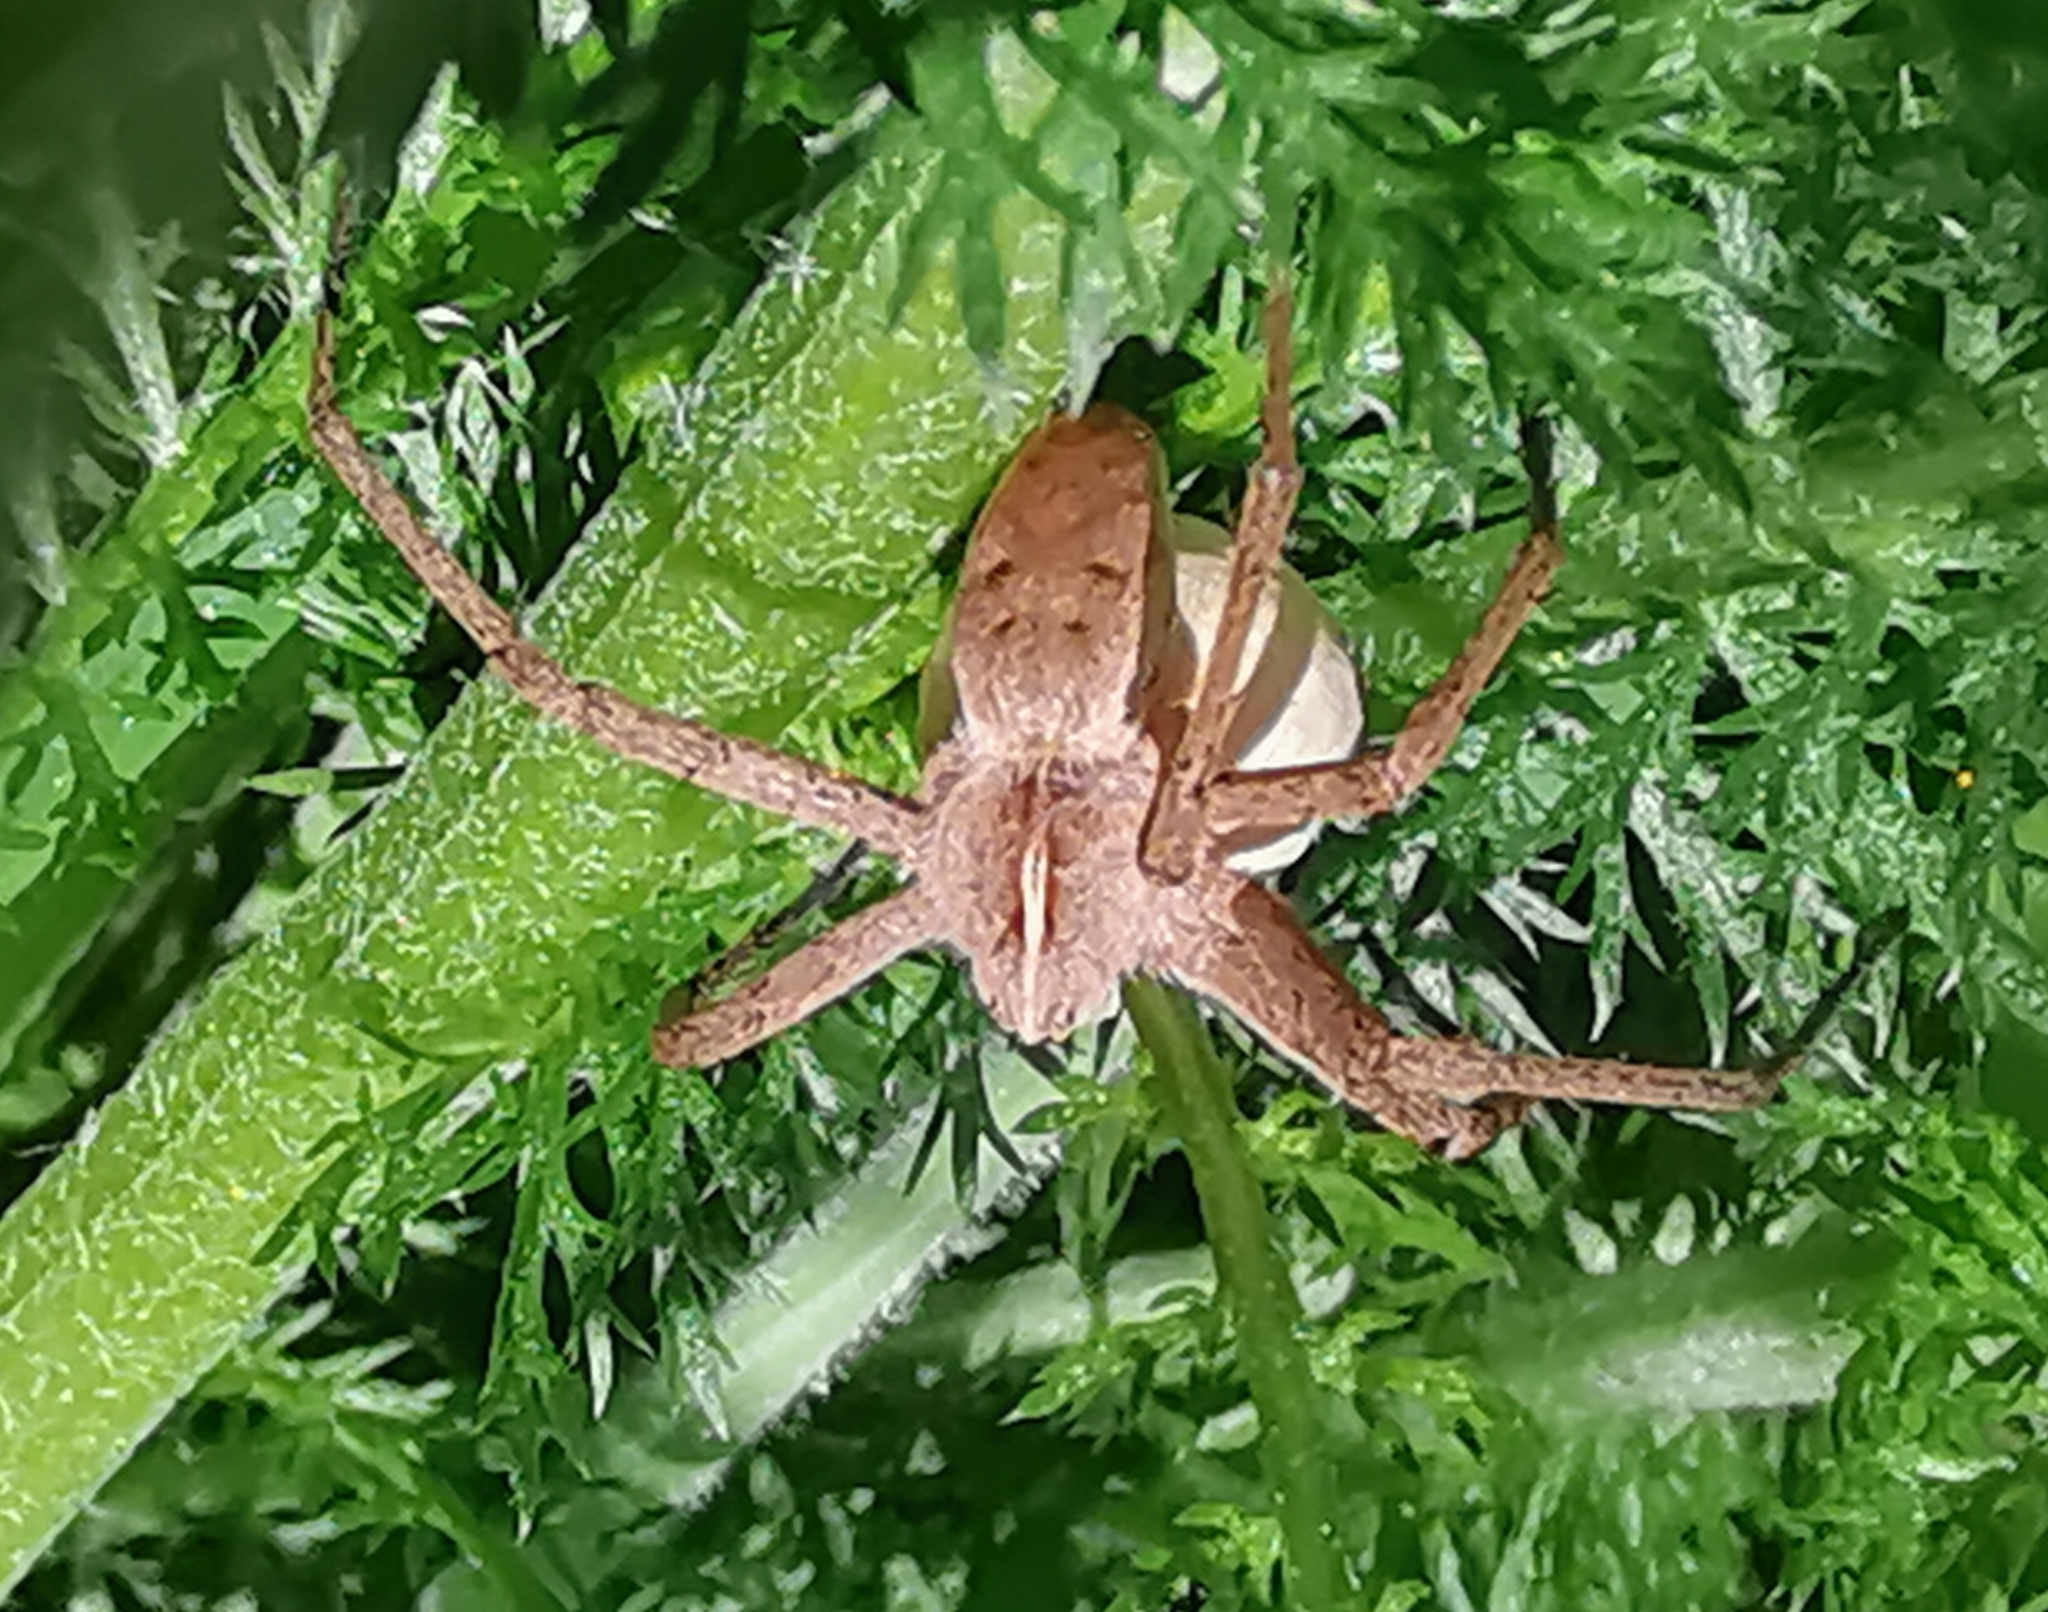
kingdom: Animalia
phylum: Arthropoda
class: Arachnida
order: Araneae
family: Pisauridae
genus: Pisaura
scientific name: Pisaura mirabilis
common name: Tent spider
